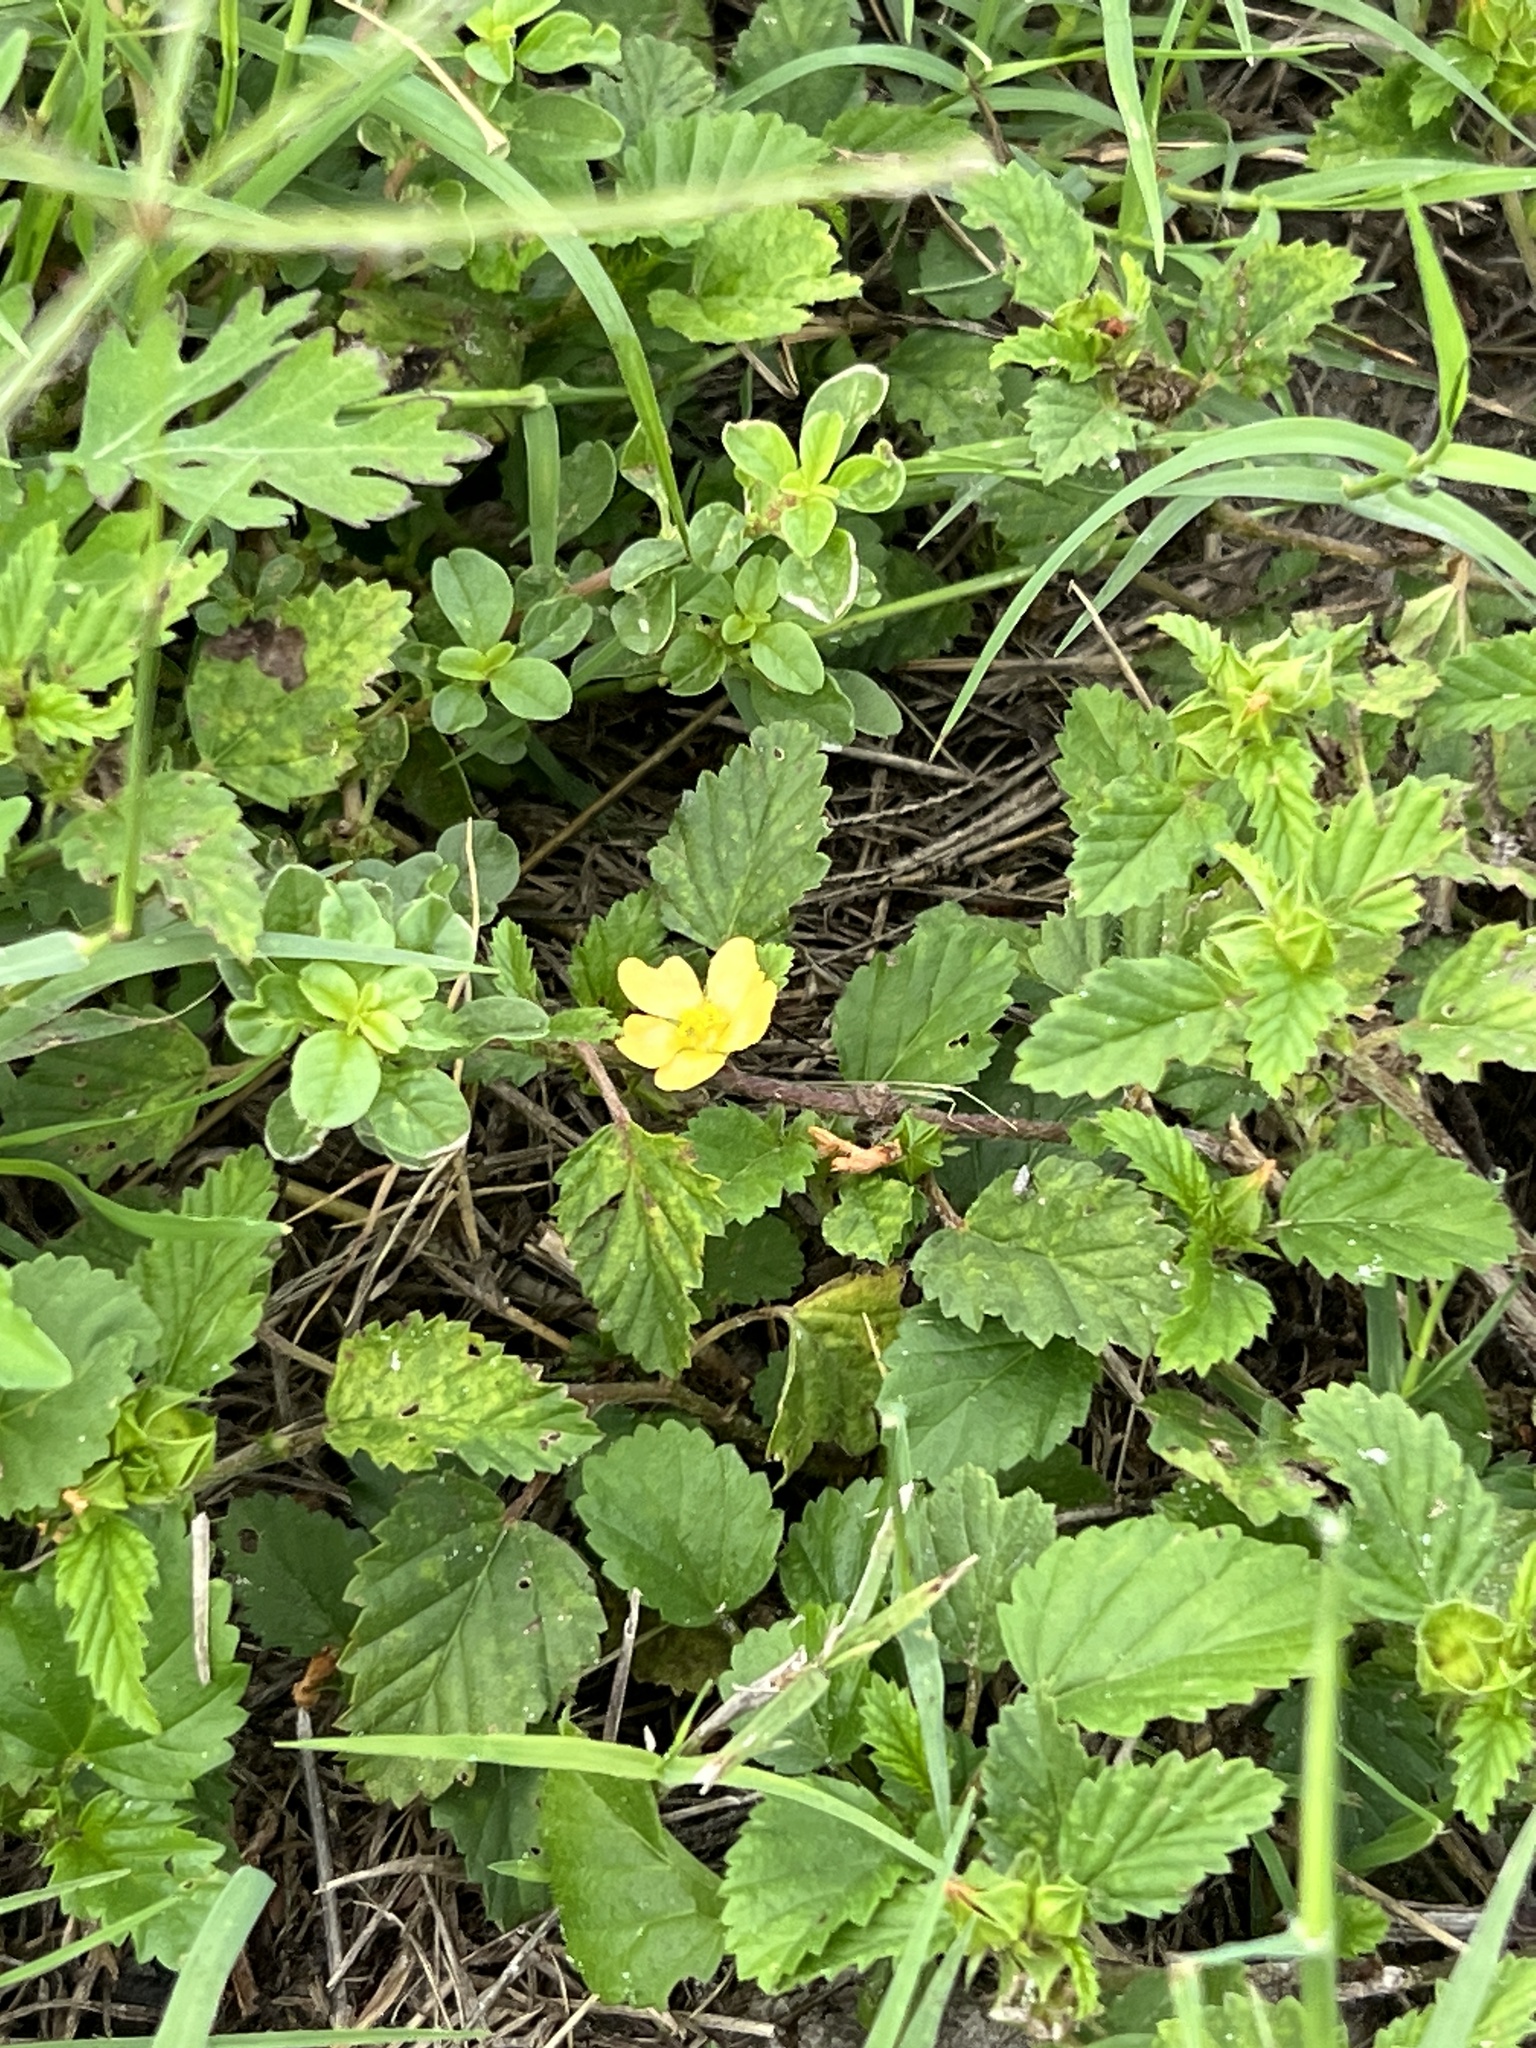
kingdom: Plantae
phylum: Tracheophyta
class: Magnoliopsida
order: Malvales
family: Malvaceae
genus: Malvastrum
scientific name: Malvastrum coromandelianum
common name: Threelobe false mallow
